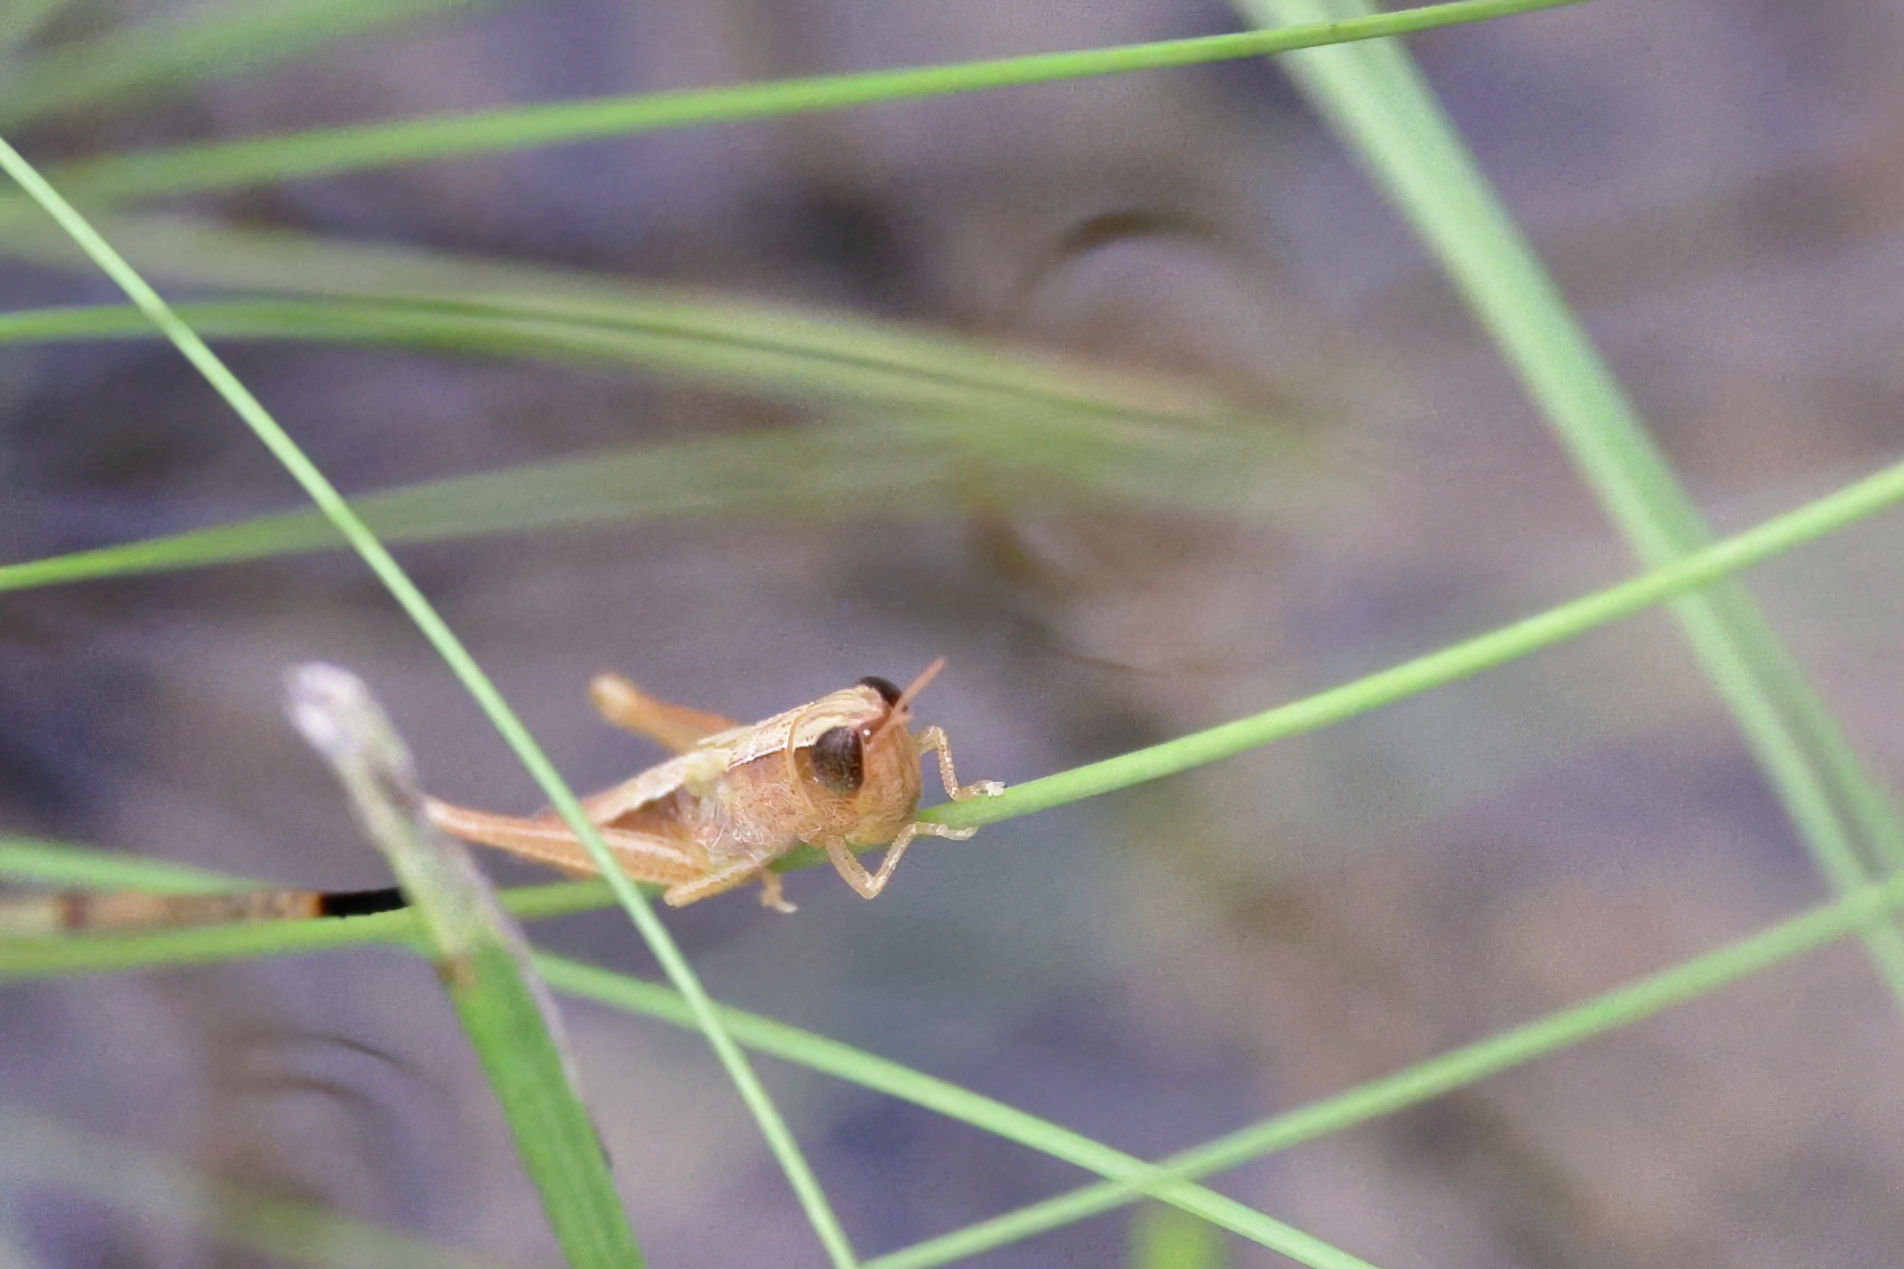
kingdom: Animalia
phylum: Arthropoda
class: Insecta
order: Orthoptera
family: Acrididae
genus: Dichromorpha
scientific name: Dichromorpha elegans
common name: Elegant grasshopper
